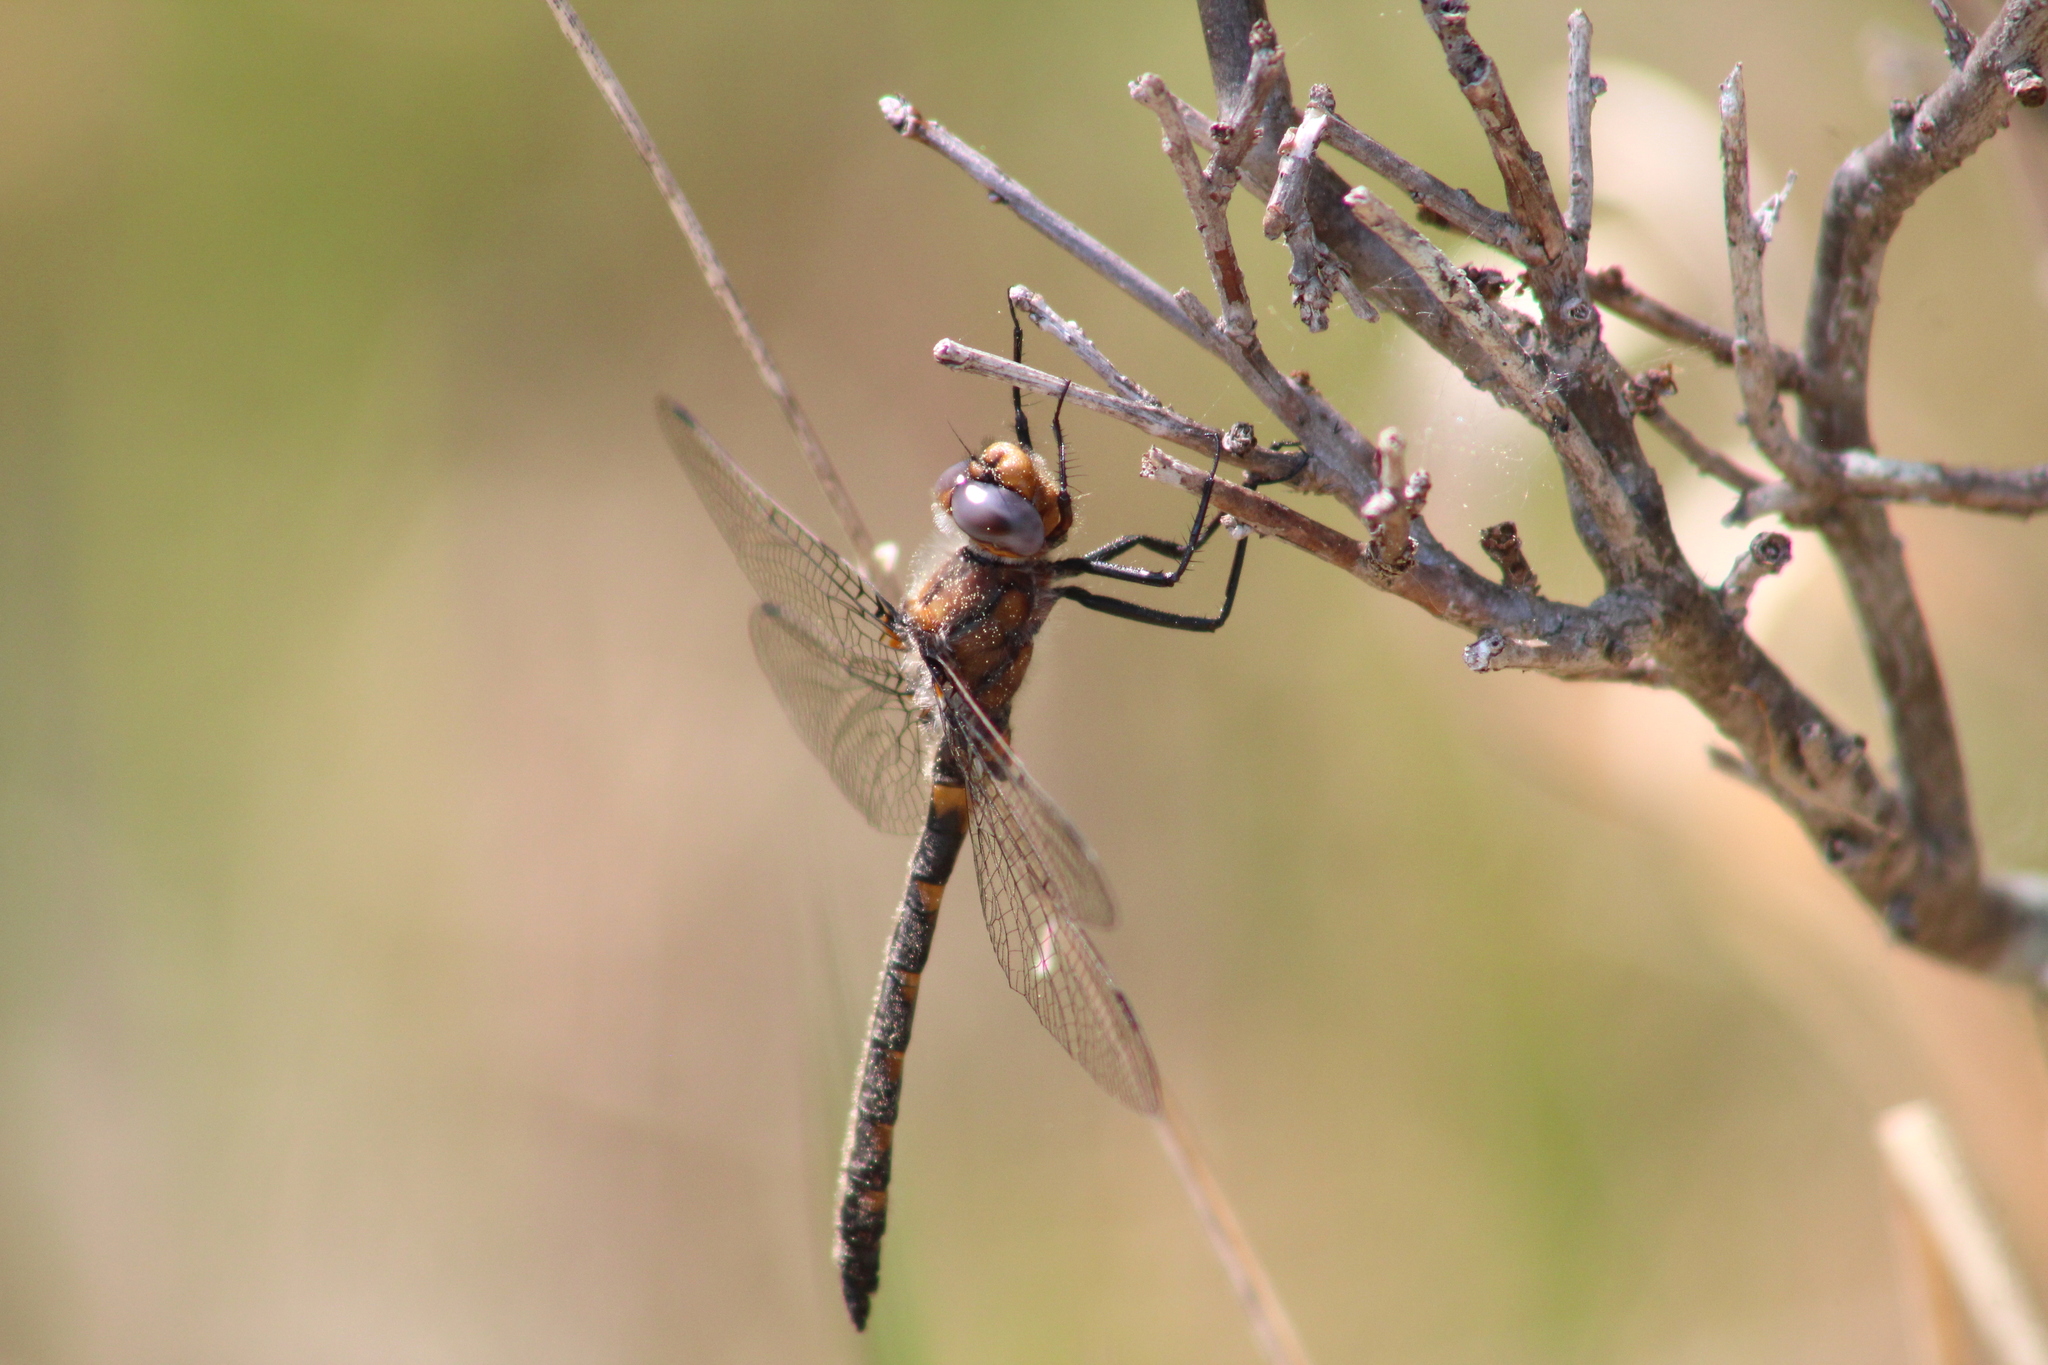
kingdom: Animalia
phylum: Arthropoda
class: Insecta
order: Odonata
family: Corduliidae
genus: Helocordulia
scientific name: Helocordulia uhleri
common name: Uhler's sundragon
